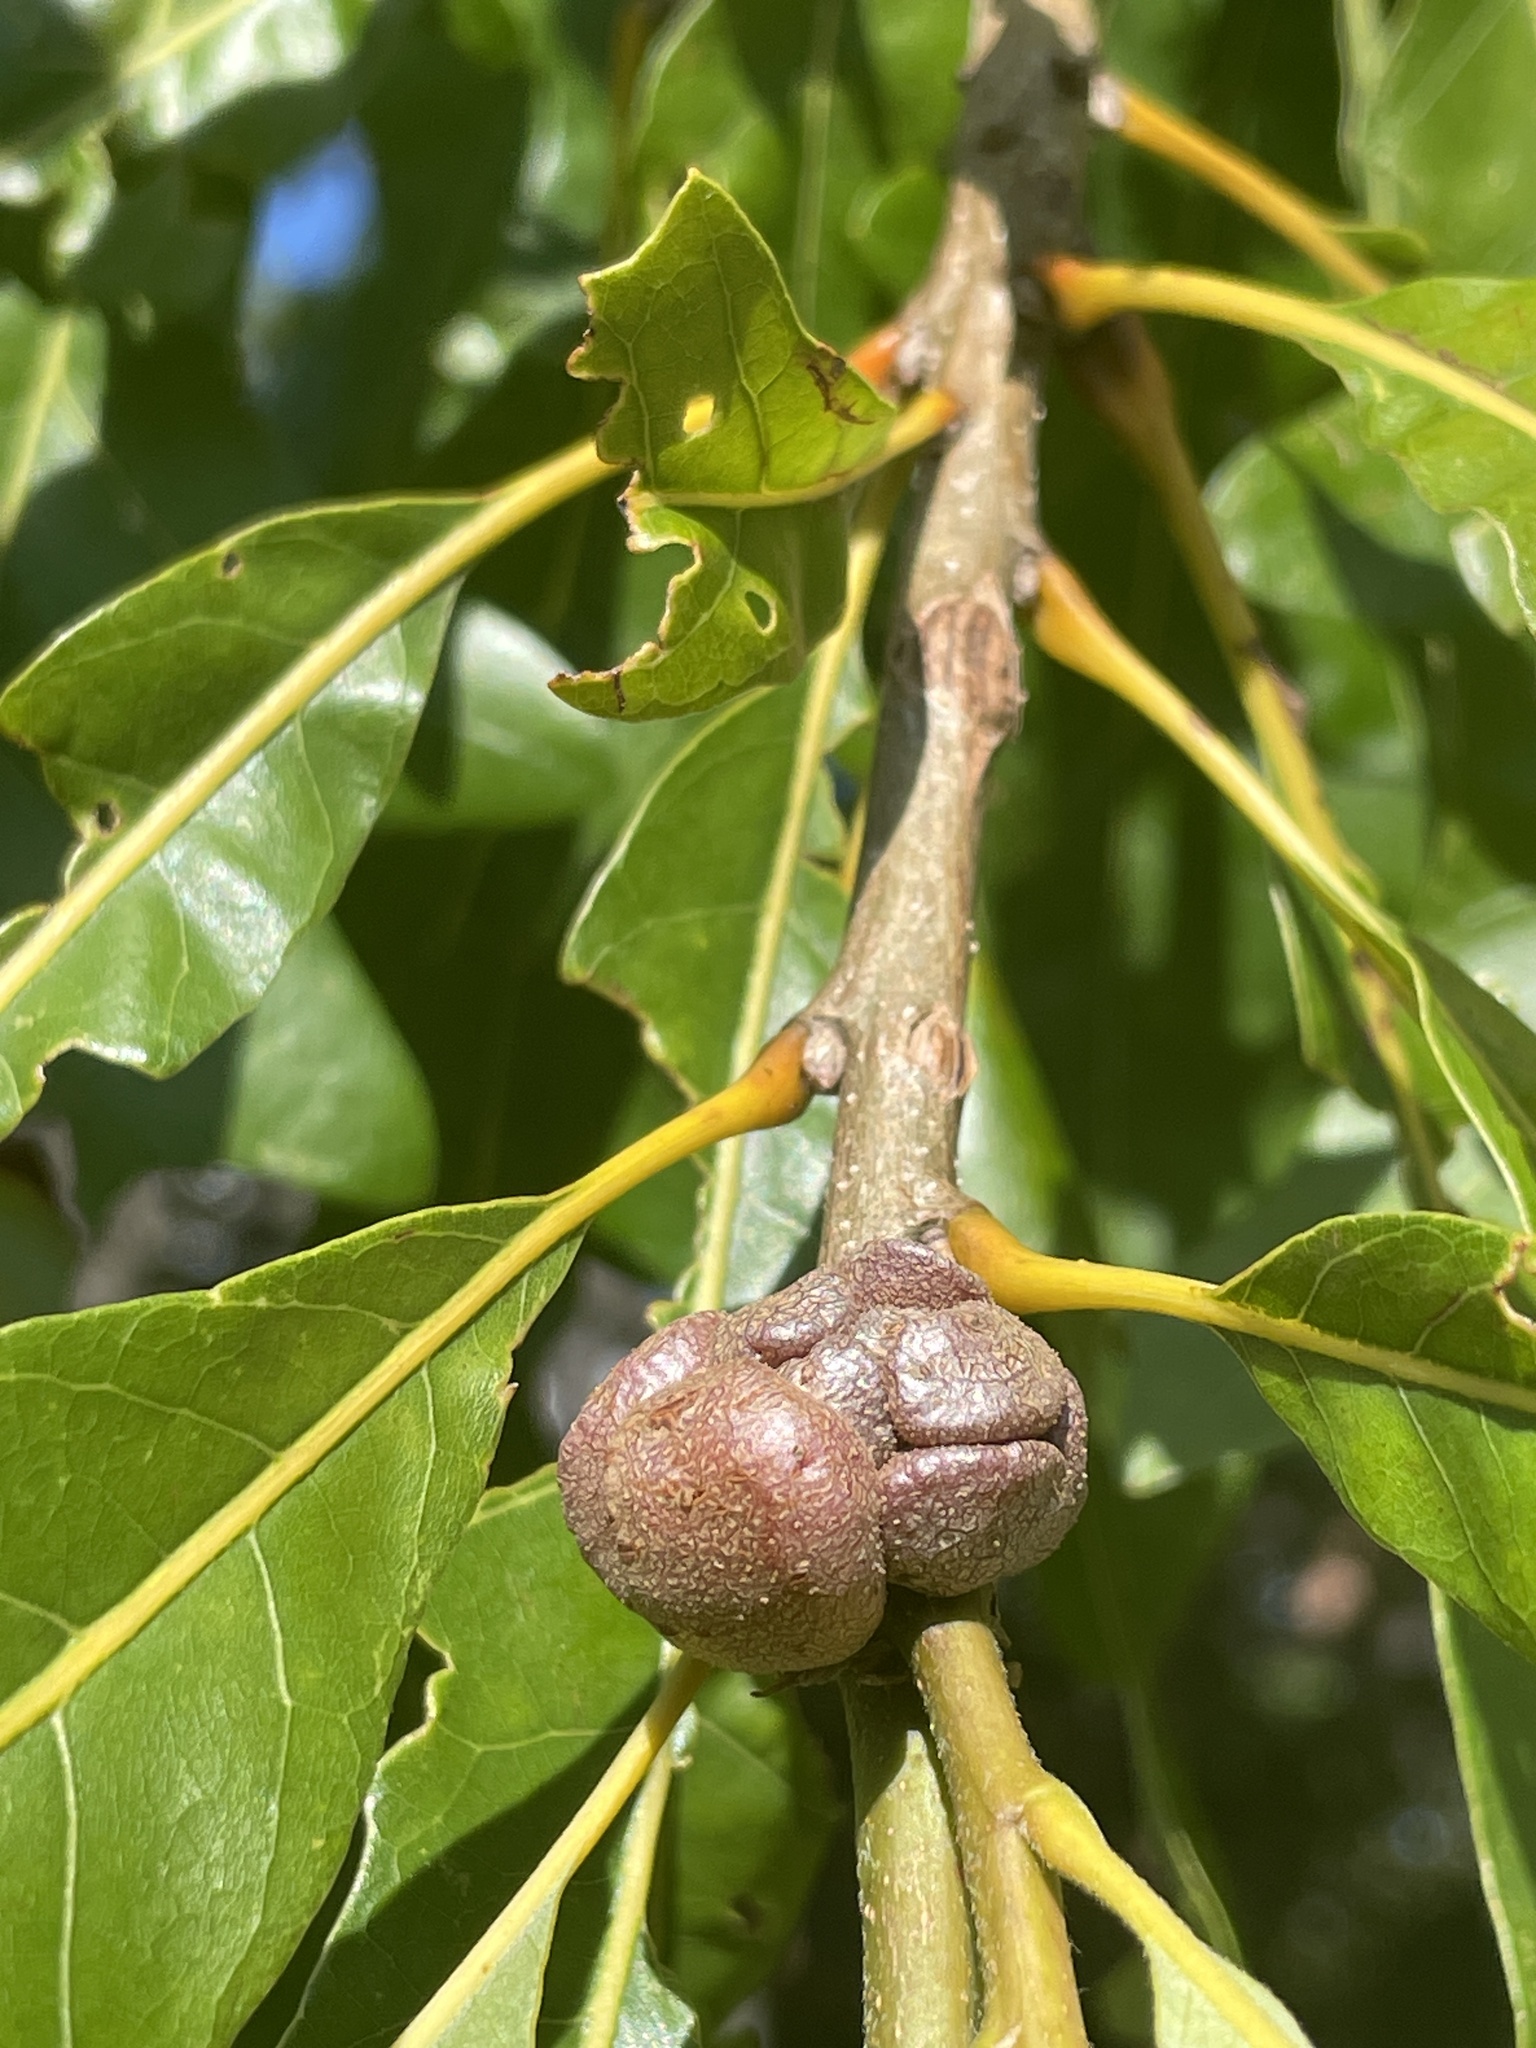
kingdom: Animalia
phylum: Arthropoda
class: Insecta
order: Hymenoptera
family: Cynipidae
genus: Andricus
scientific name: Andricus
